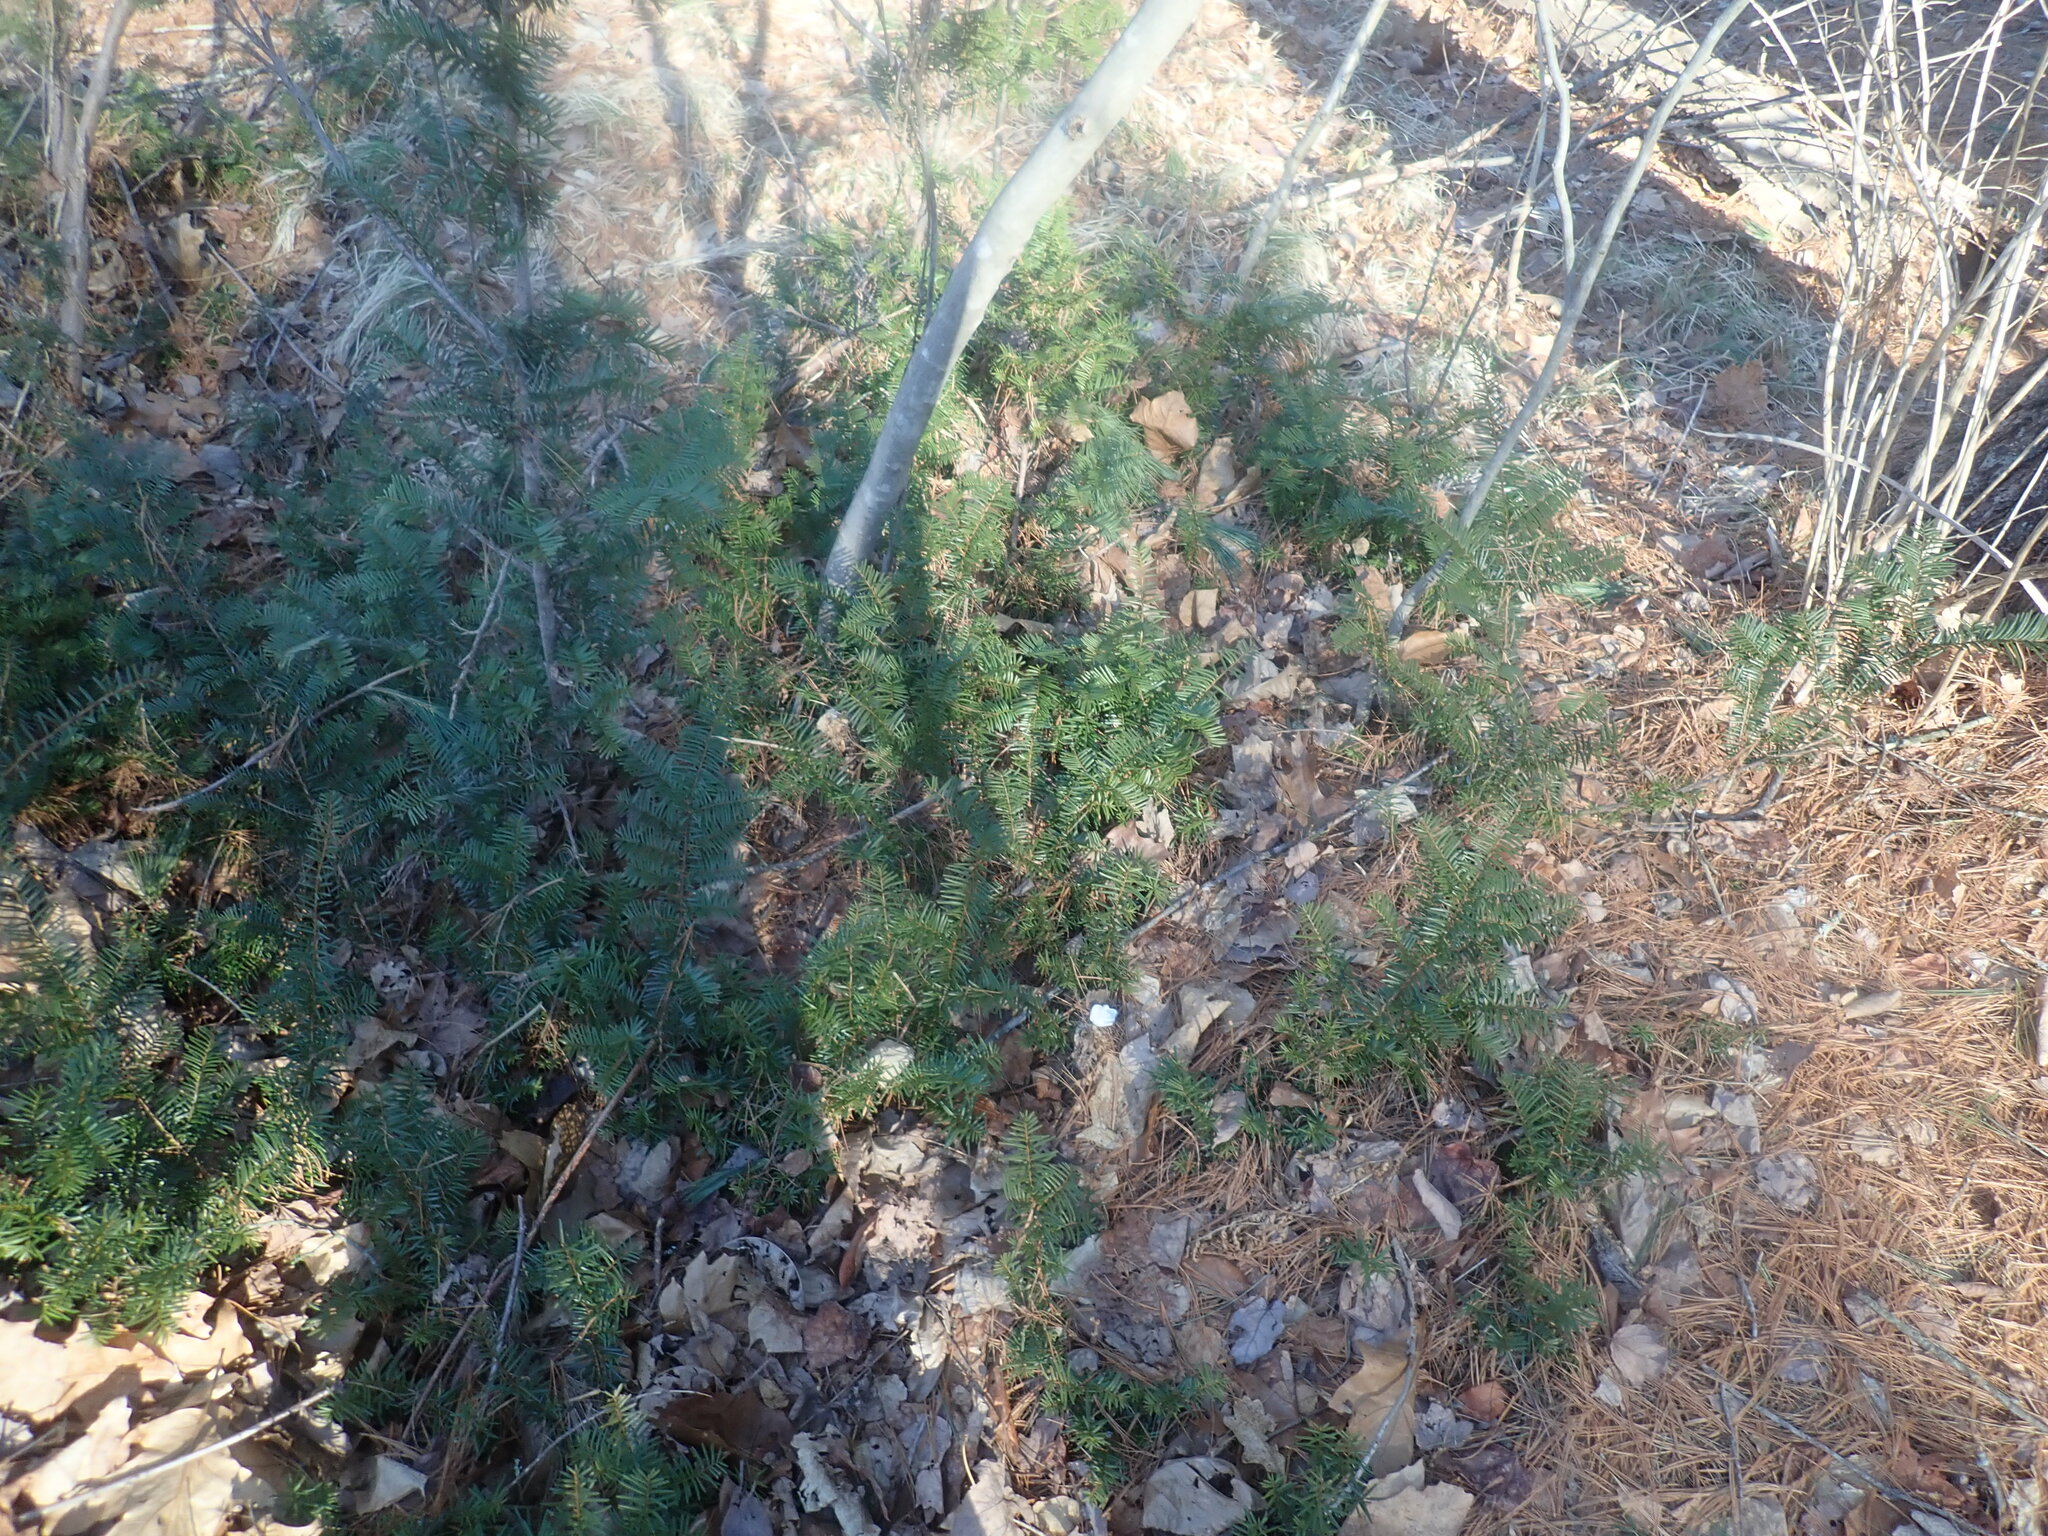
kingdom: Plantae
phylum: Tracheophyta
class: Pinopsida
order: Pinales
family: Taxaceae
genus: Taxus
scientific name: Taxus canadensis
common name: American yew
